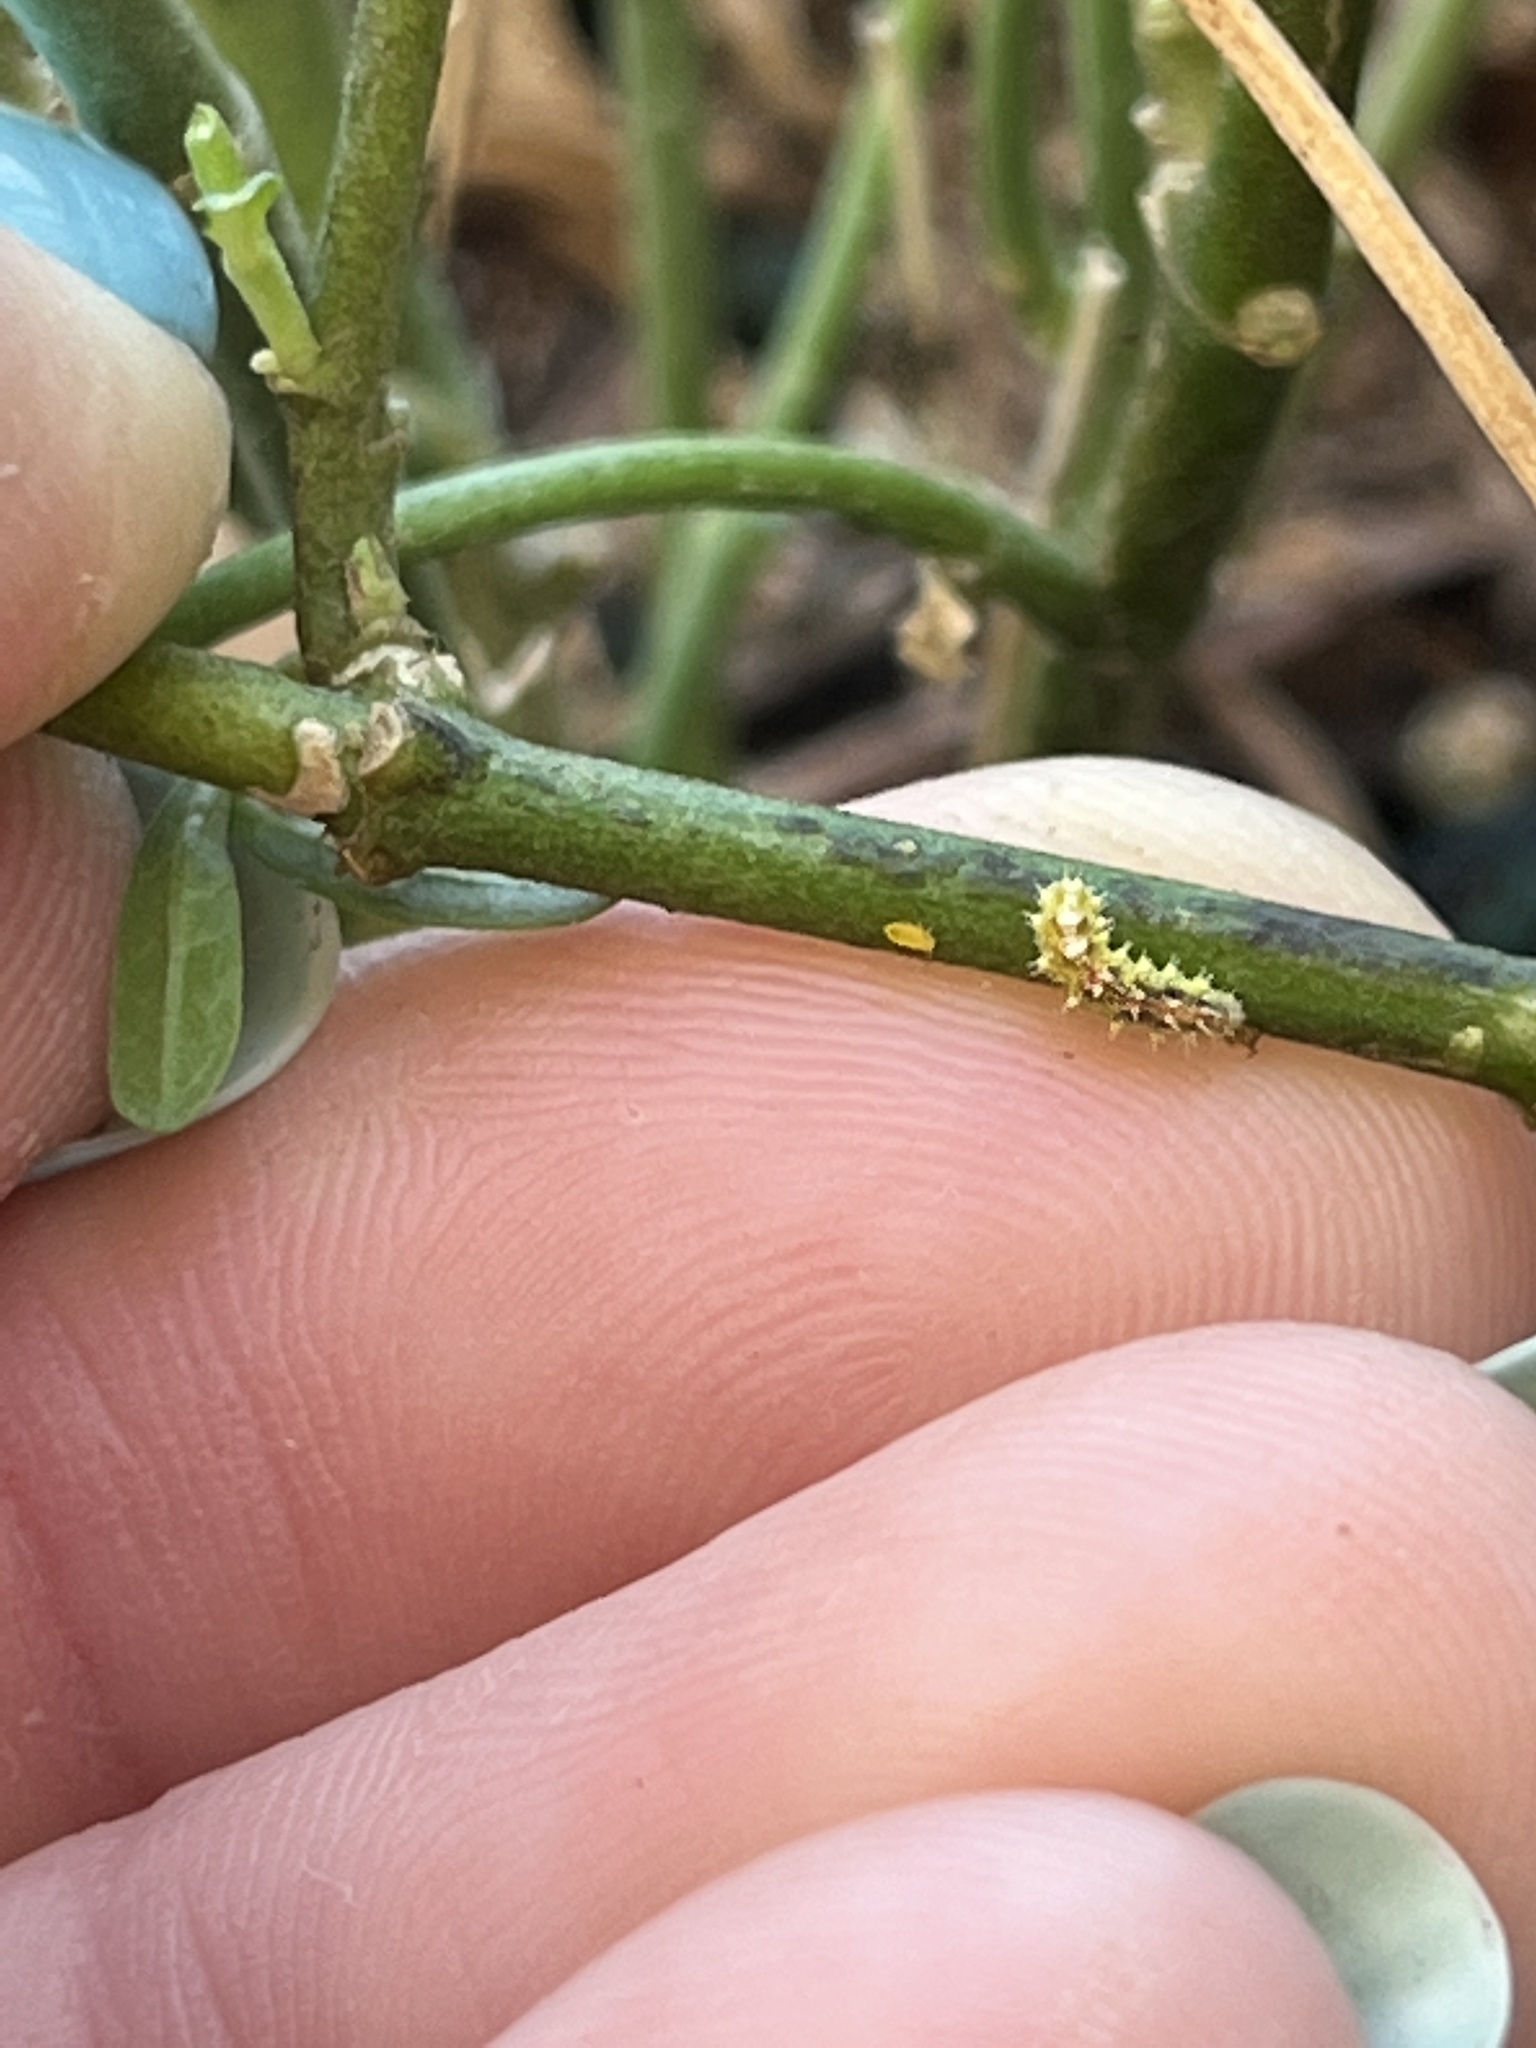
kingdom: Animalia
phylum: Arthropoda
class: Insecta
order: Diptera
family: Syrphidae
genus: Dioprosopa
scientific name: Dioprosopa clavatus
